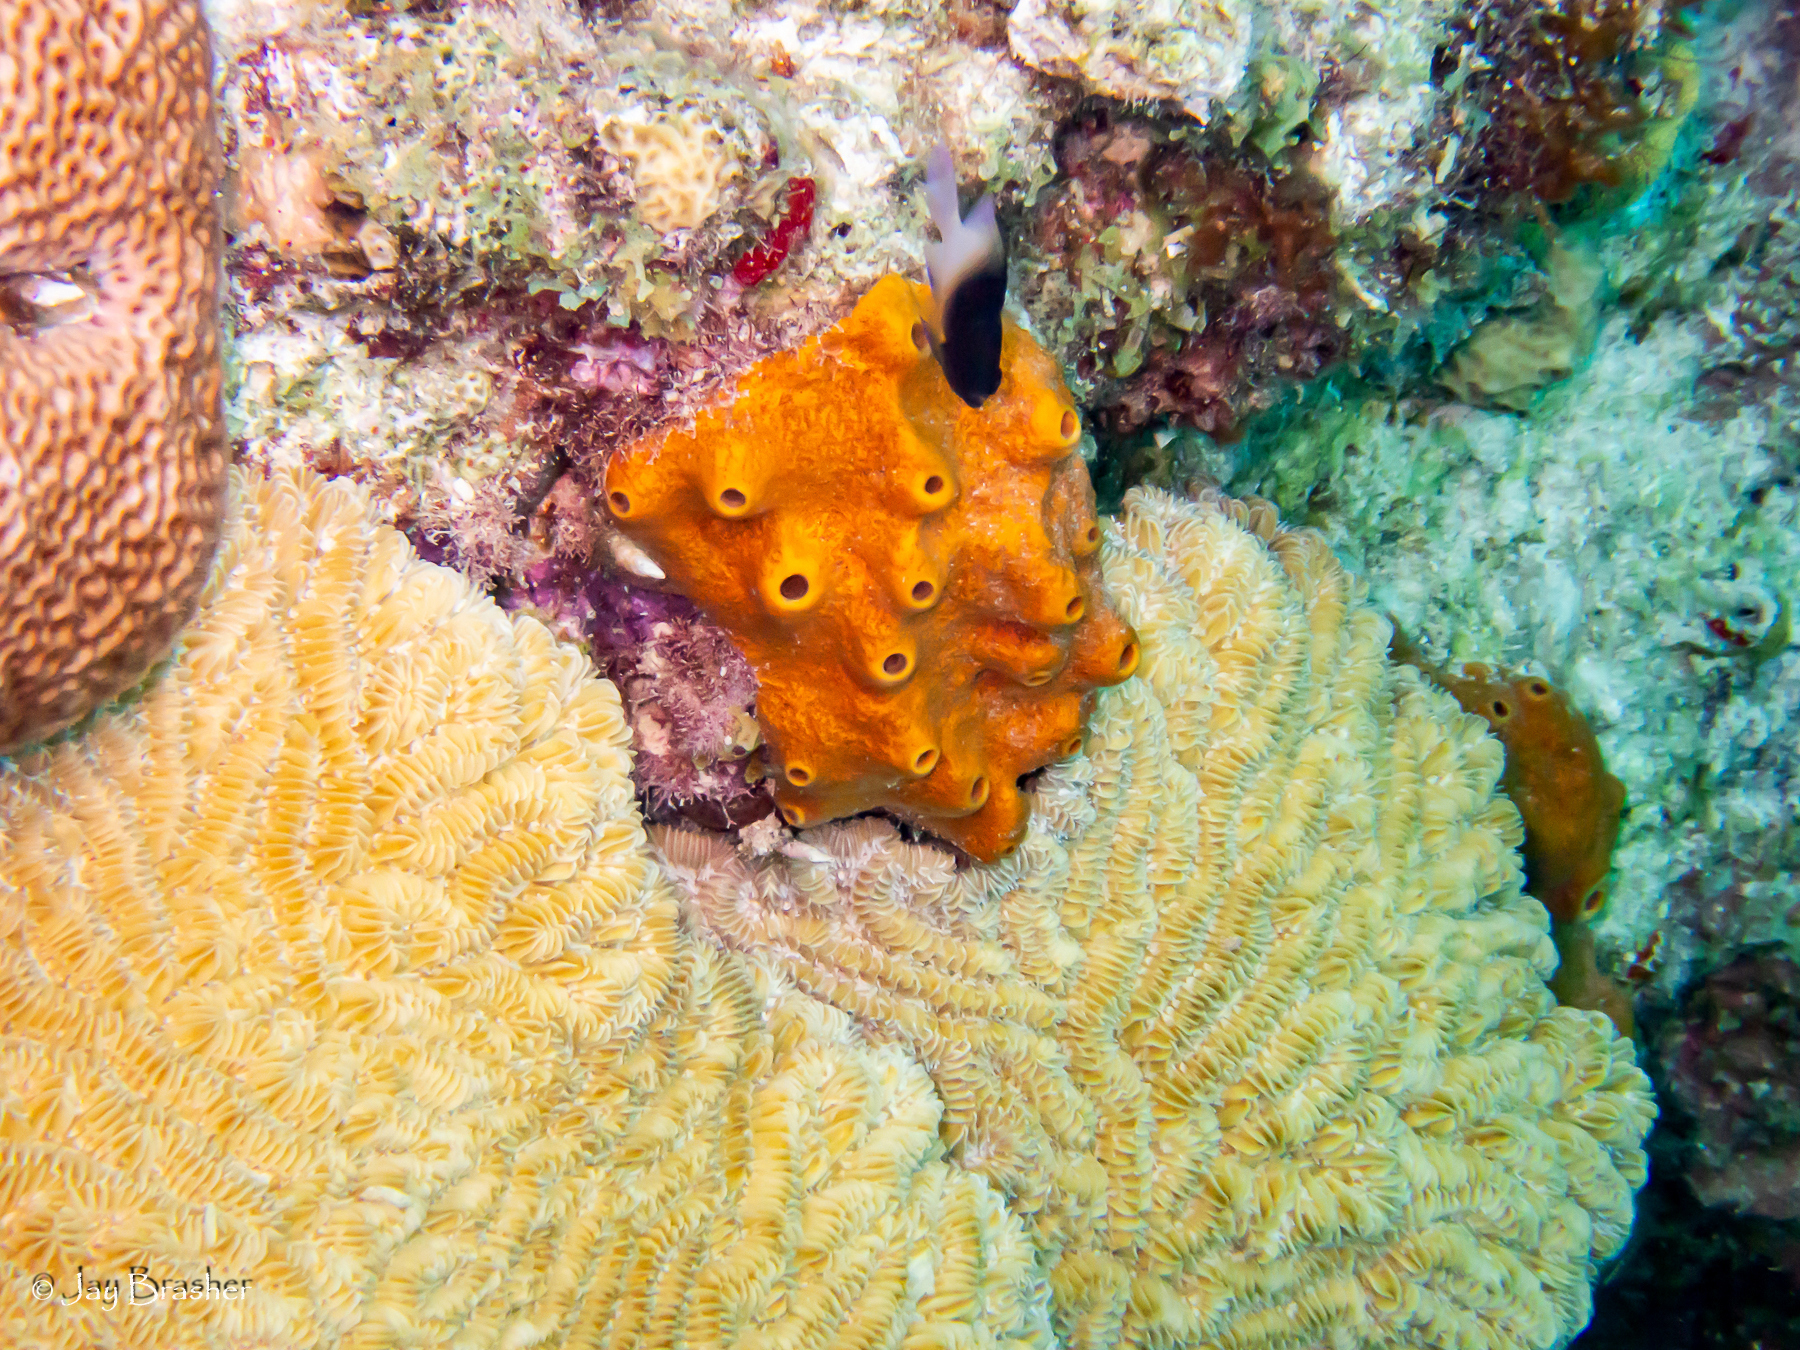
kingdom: Animalia
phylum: Cnidaria
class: Anthozoa
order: Scleractinia
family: Meandrinidae
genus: Meandrina
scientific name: Meandrina meandrites
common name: Maze coral
